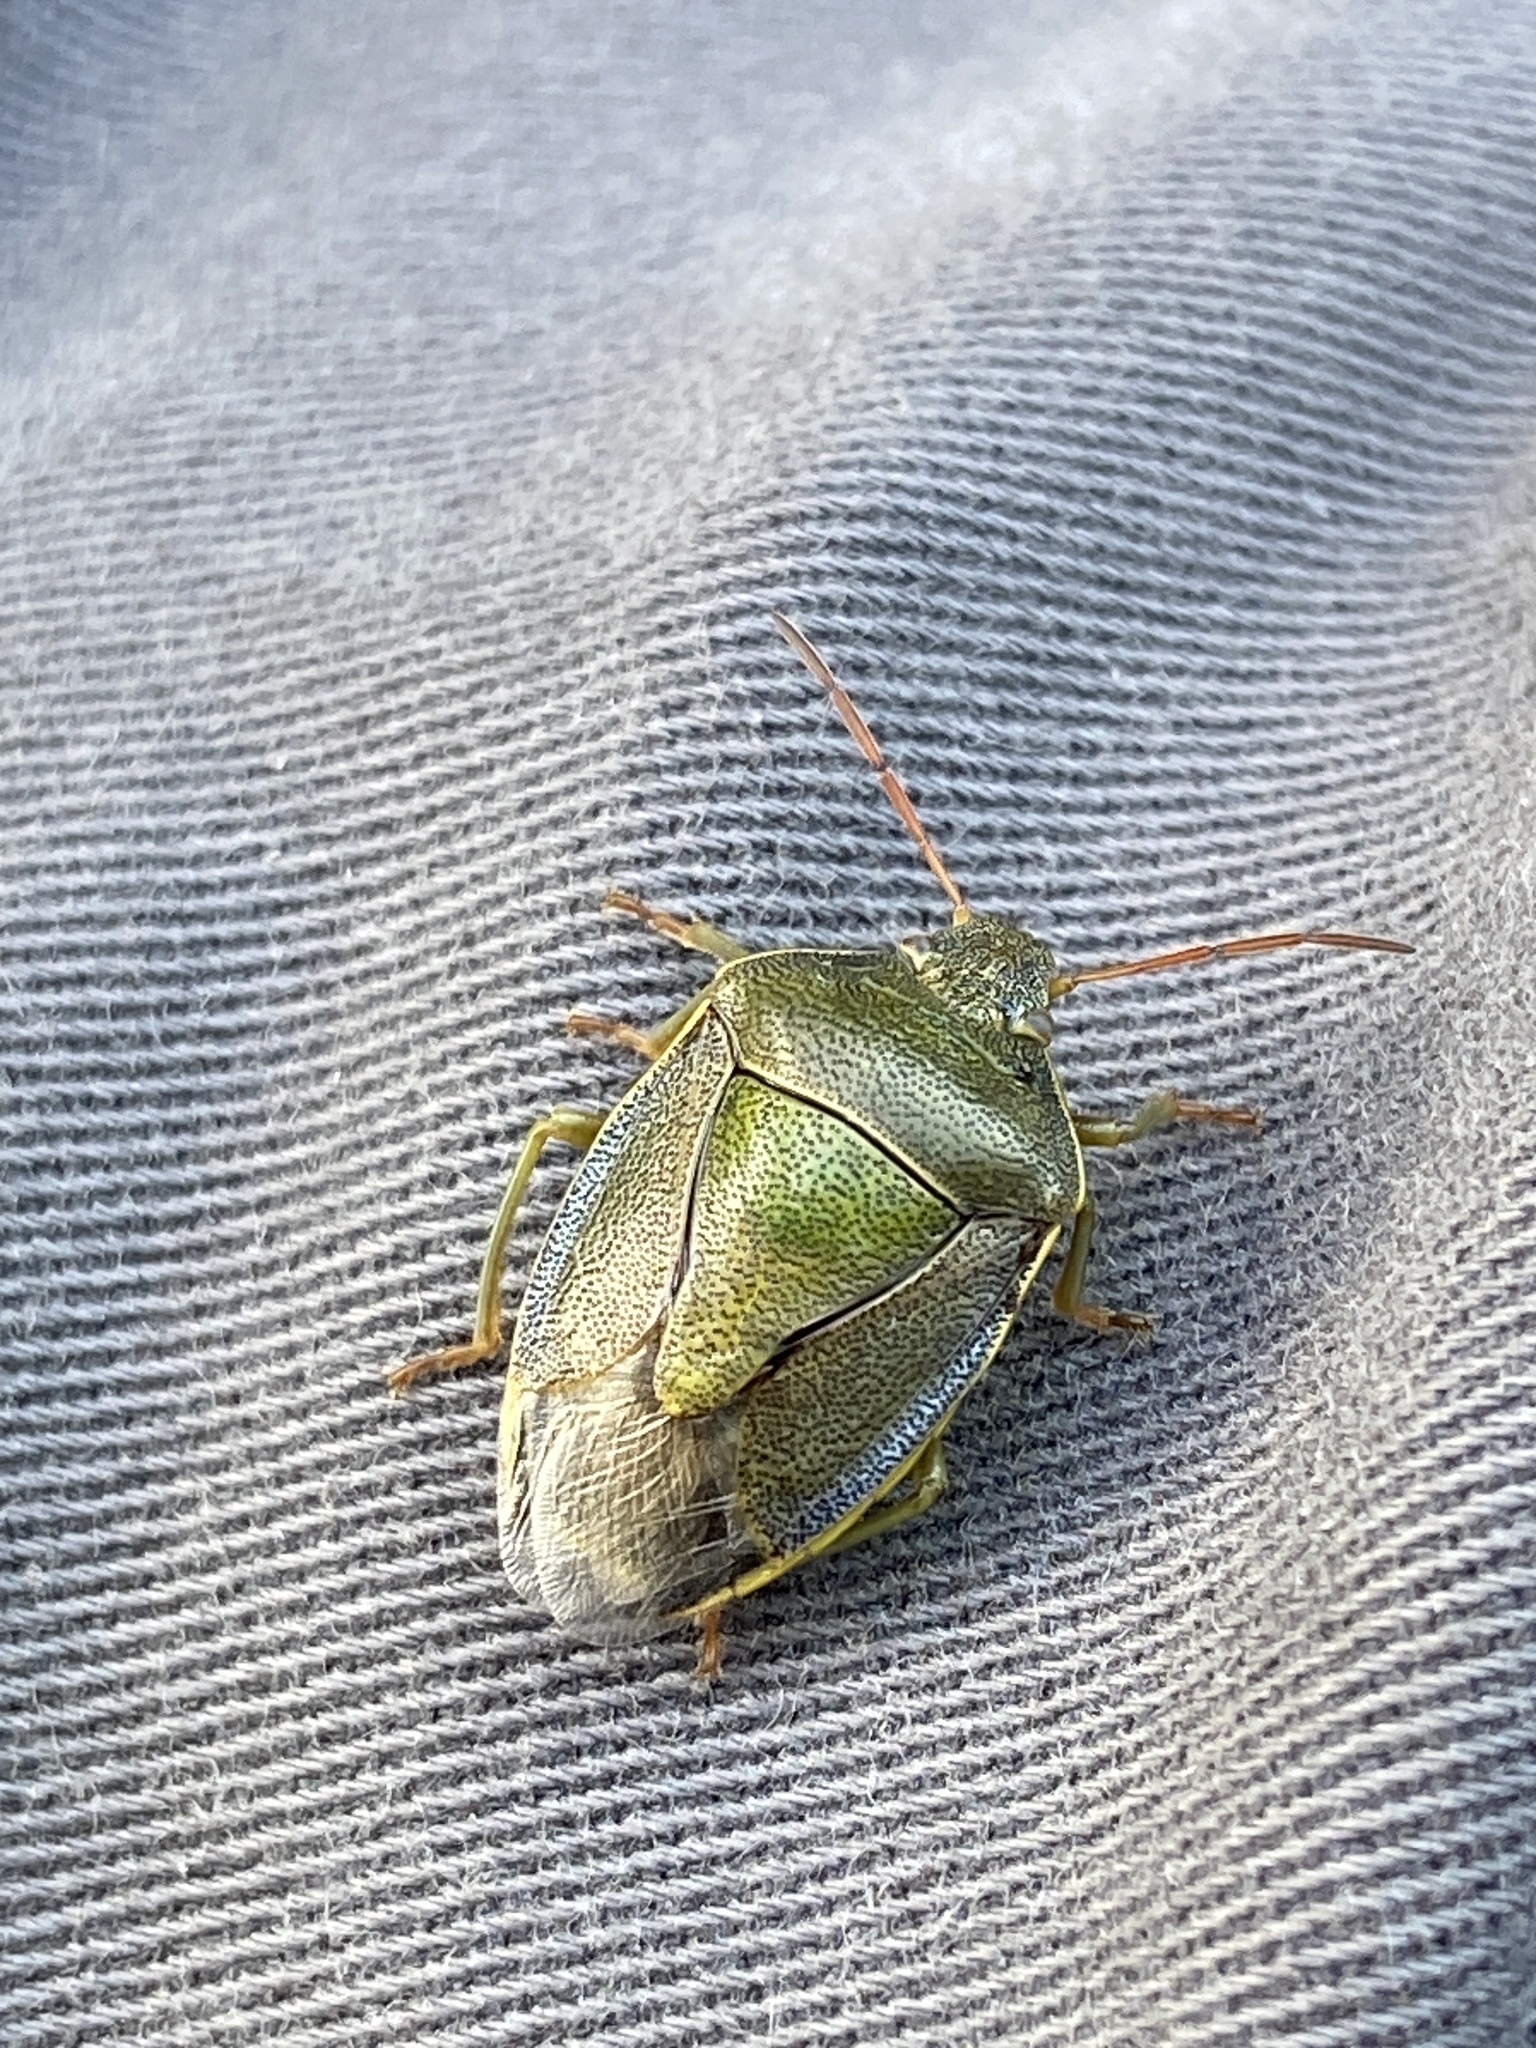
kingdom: Animalia
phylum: Arthropoda
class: Insecta
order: Hemiptera
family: Pentatomidae
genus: Piezodorus
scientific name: Piezodorus lituratus
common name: Stink bug
